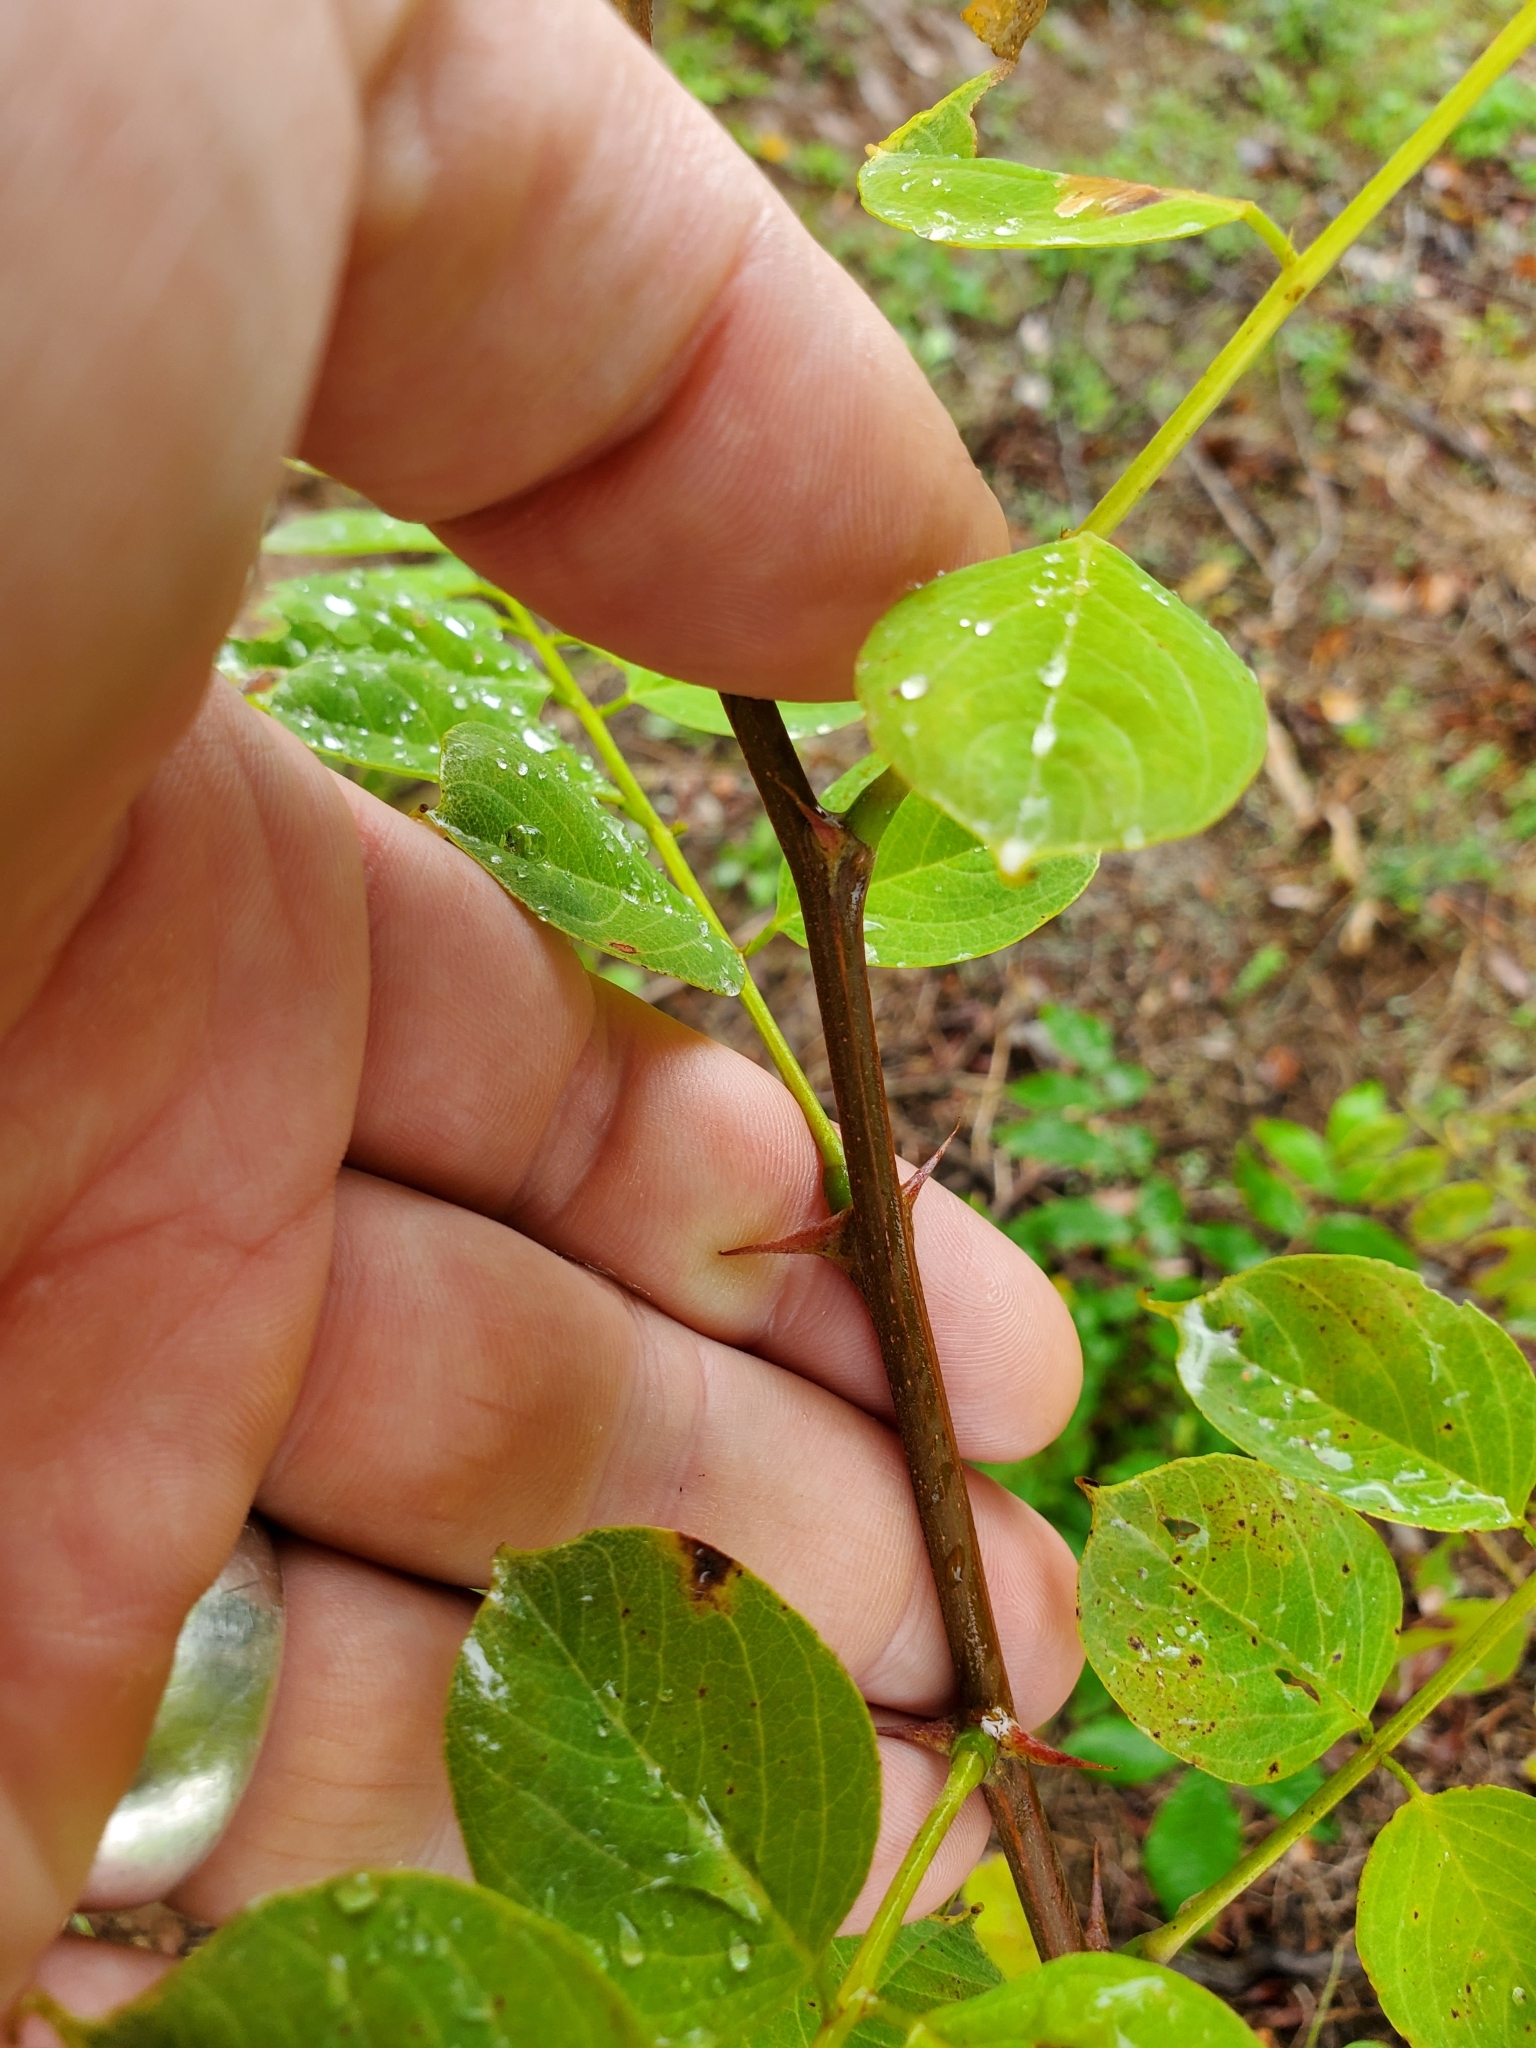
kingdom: Plantae
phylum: Tracheophyta
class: Magnoliopsida
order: Fabales
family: Fabaceae
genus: Robinia
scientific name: Robinia pseudoacacia
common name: Black locust
